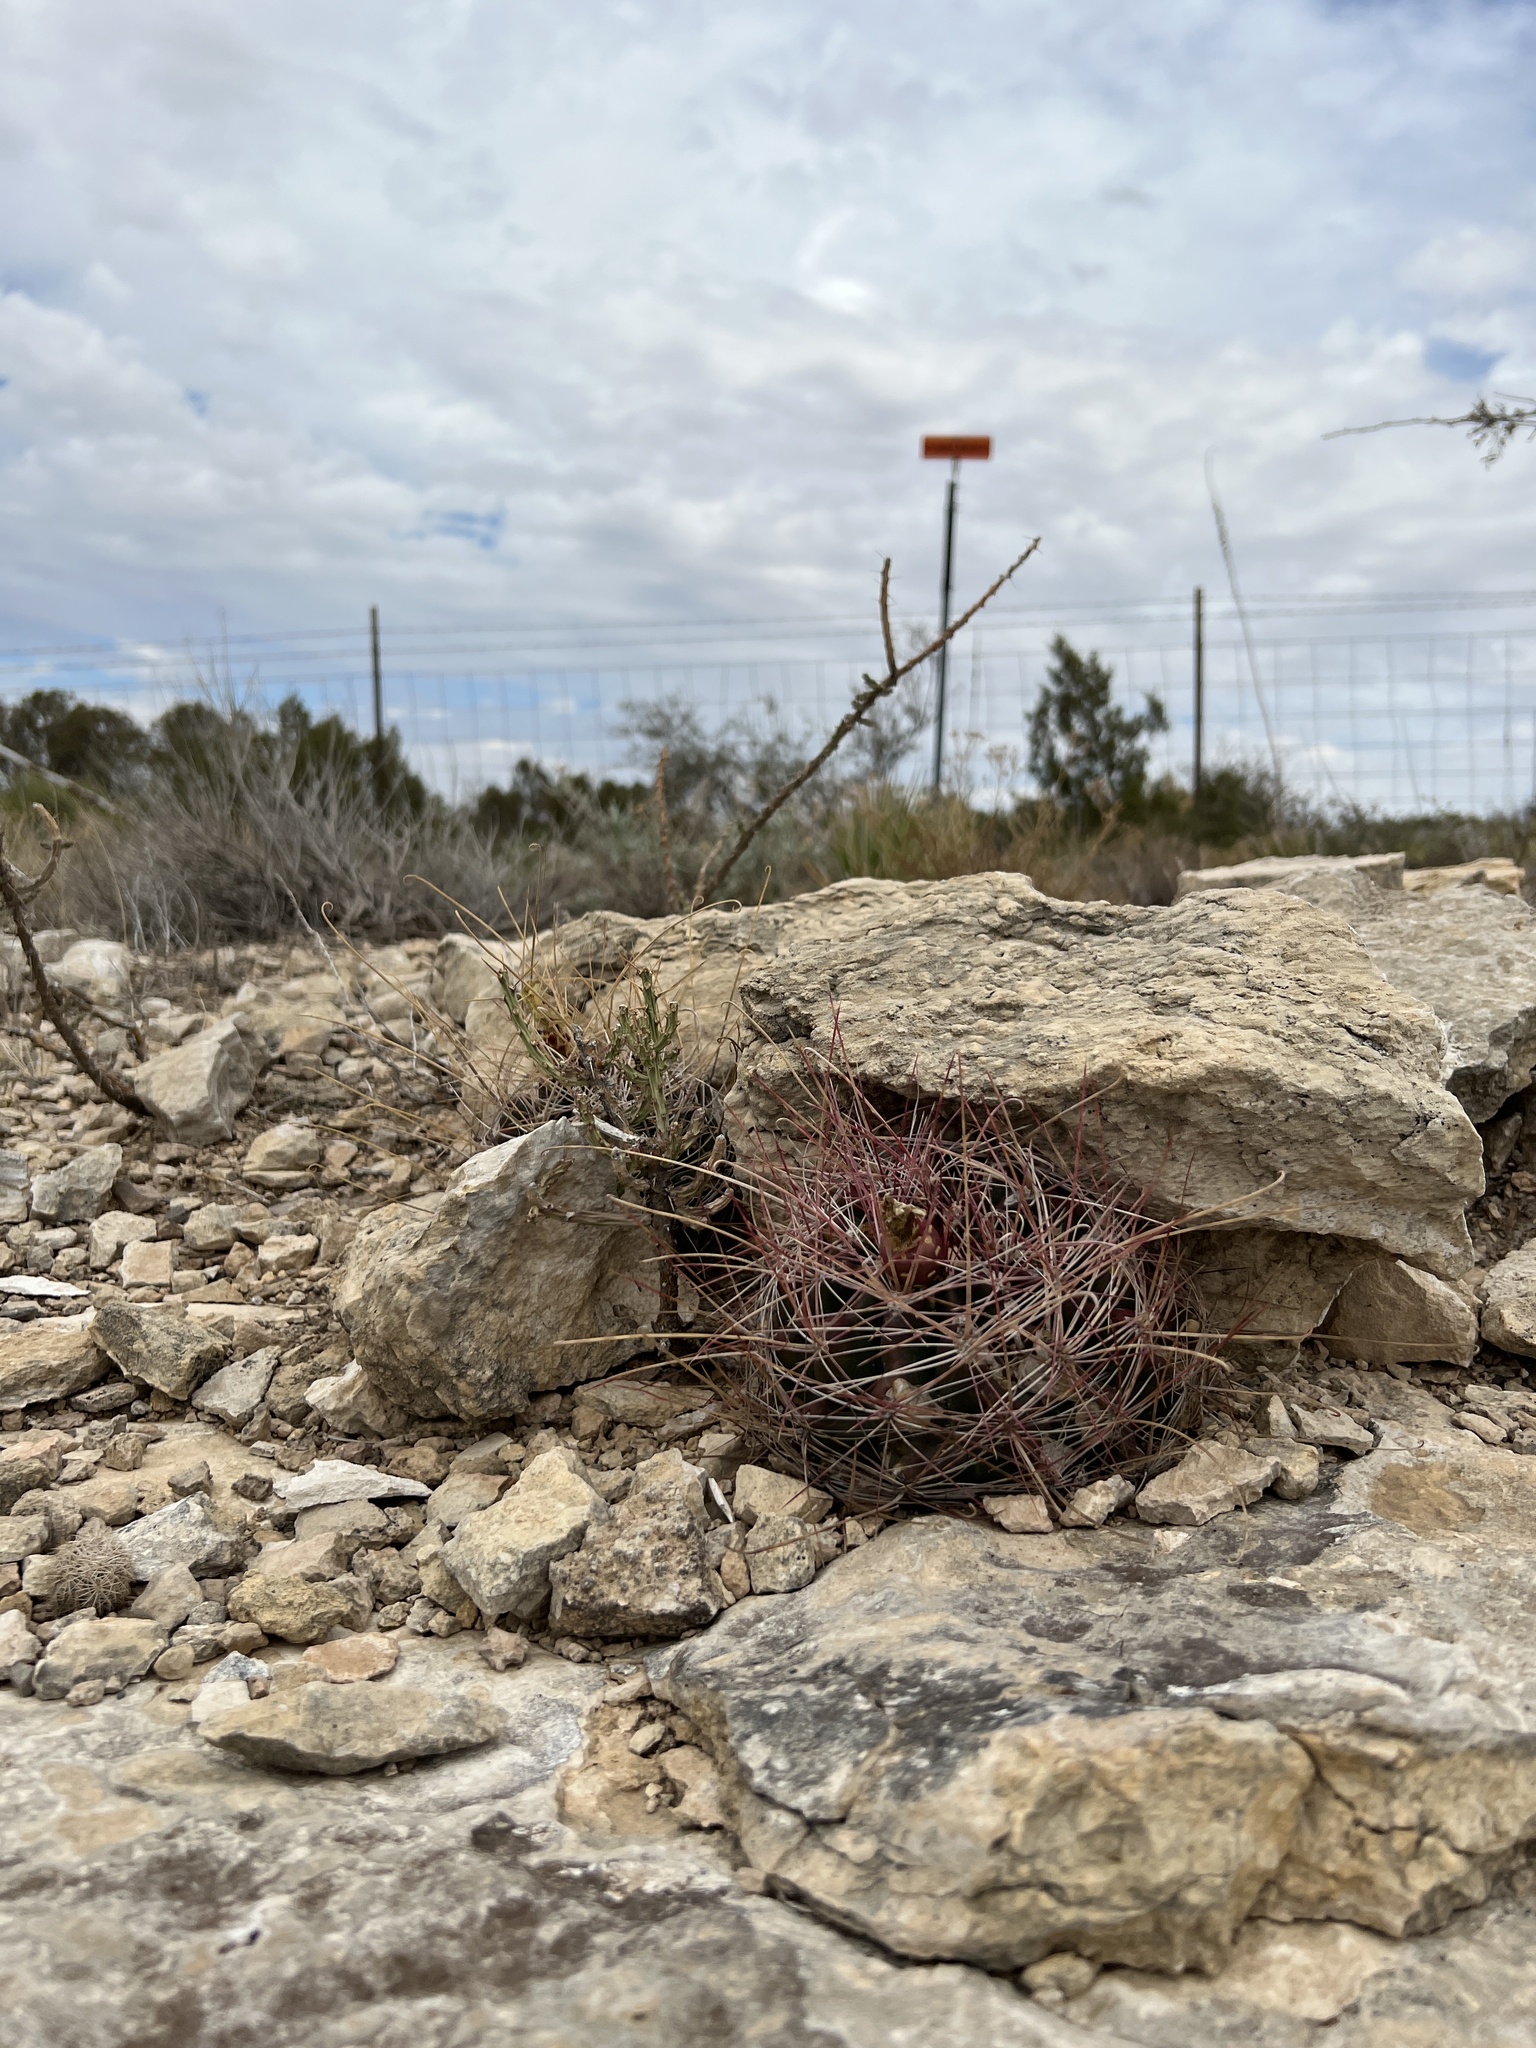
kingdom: Plantae
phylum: Tracheophyta
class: Magnoliopsida
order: Caryophyllales
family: Cactaceae
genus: Bisnaga
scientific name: Bisnaga hamatacantha
